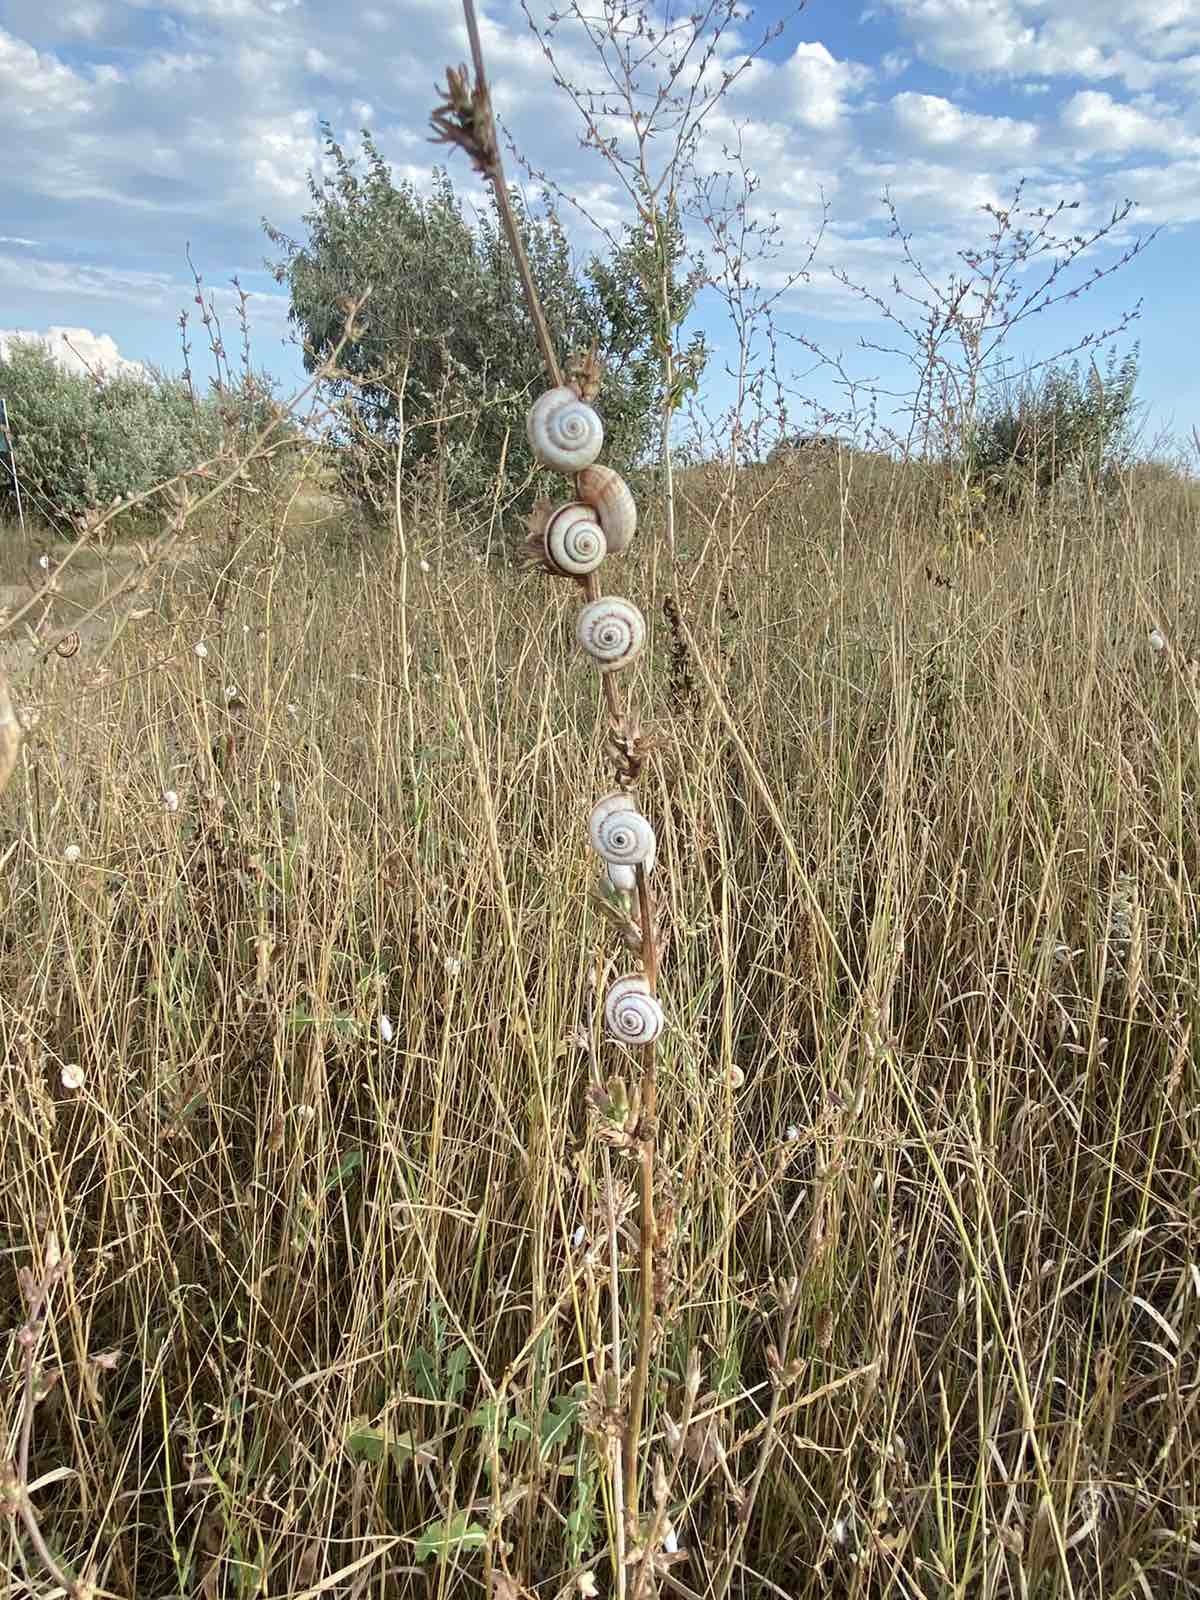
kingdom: Animalia
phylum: Mollusca
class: Gastropoda
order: Stylommatophora
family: Helicidae
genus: Eobania
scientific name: Eobania vermiculata
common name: Chocolateband snail
